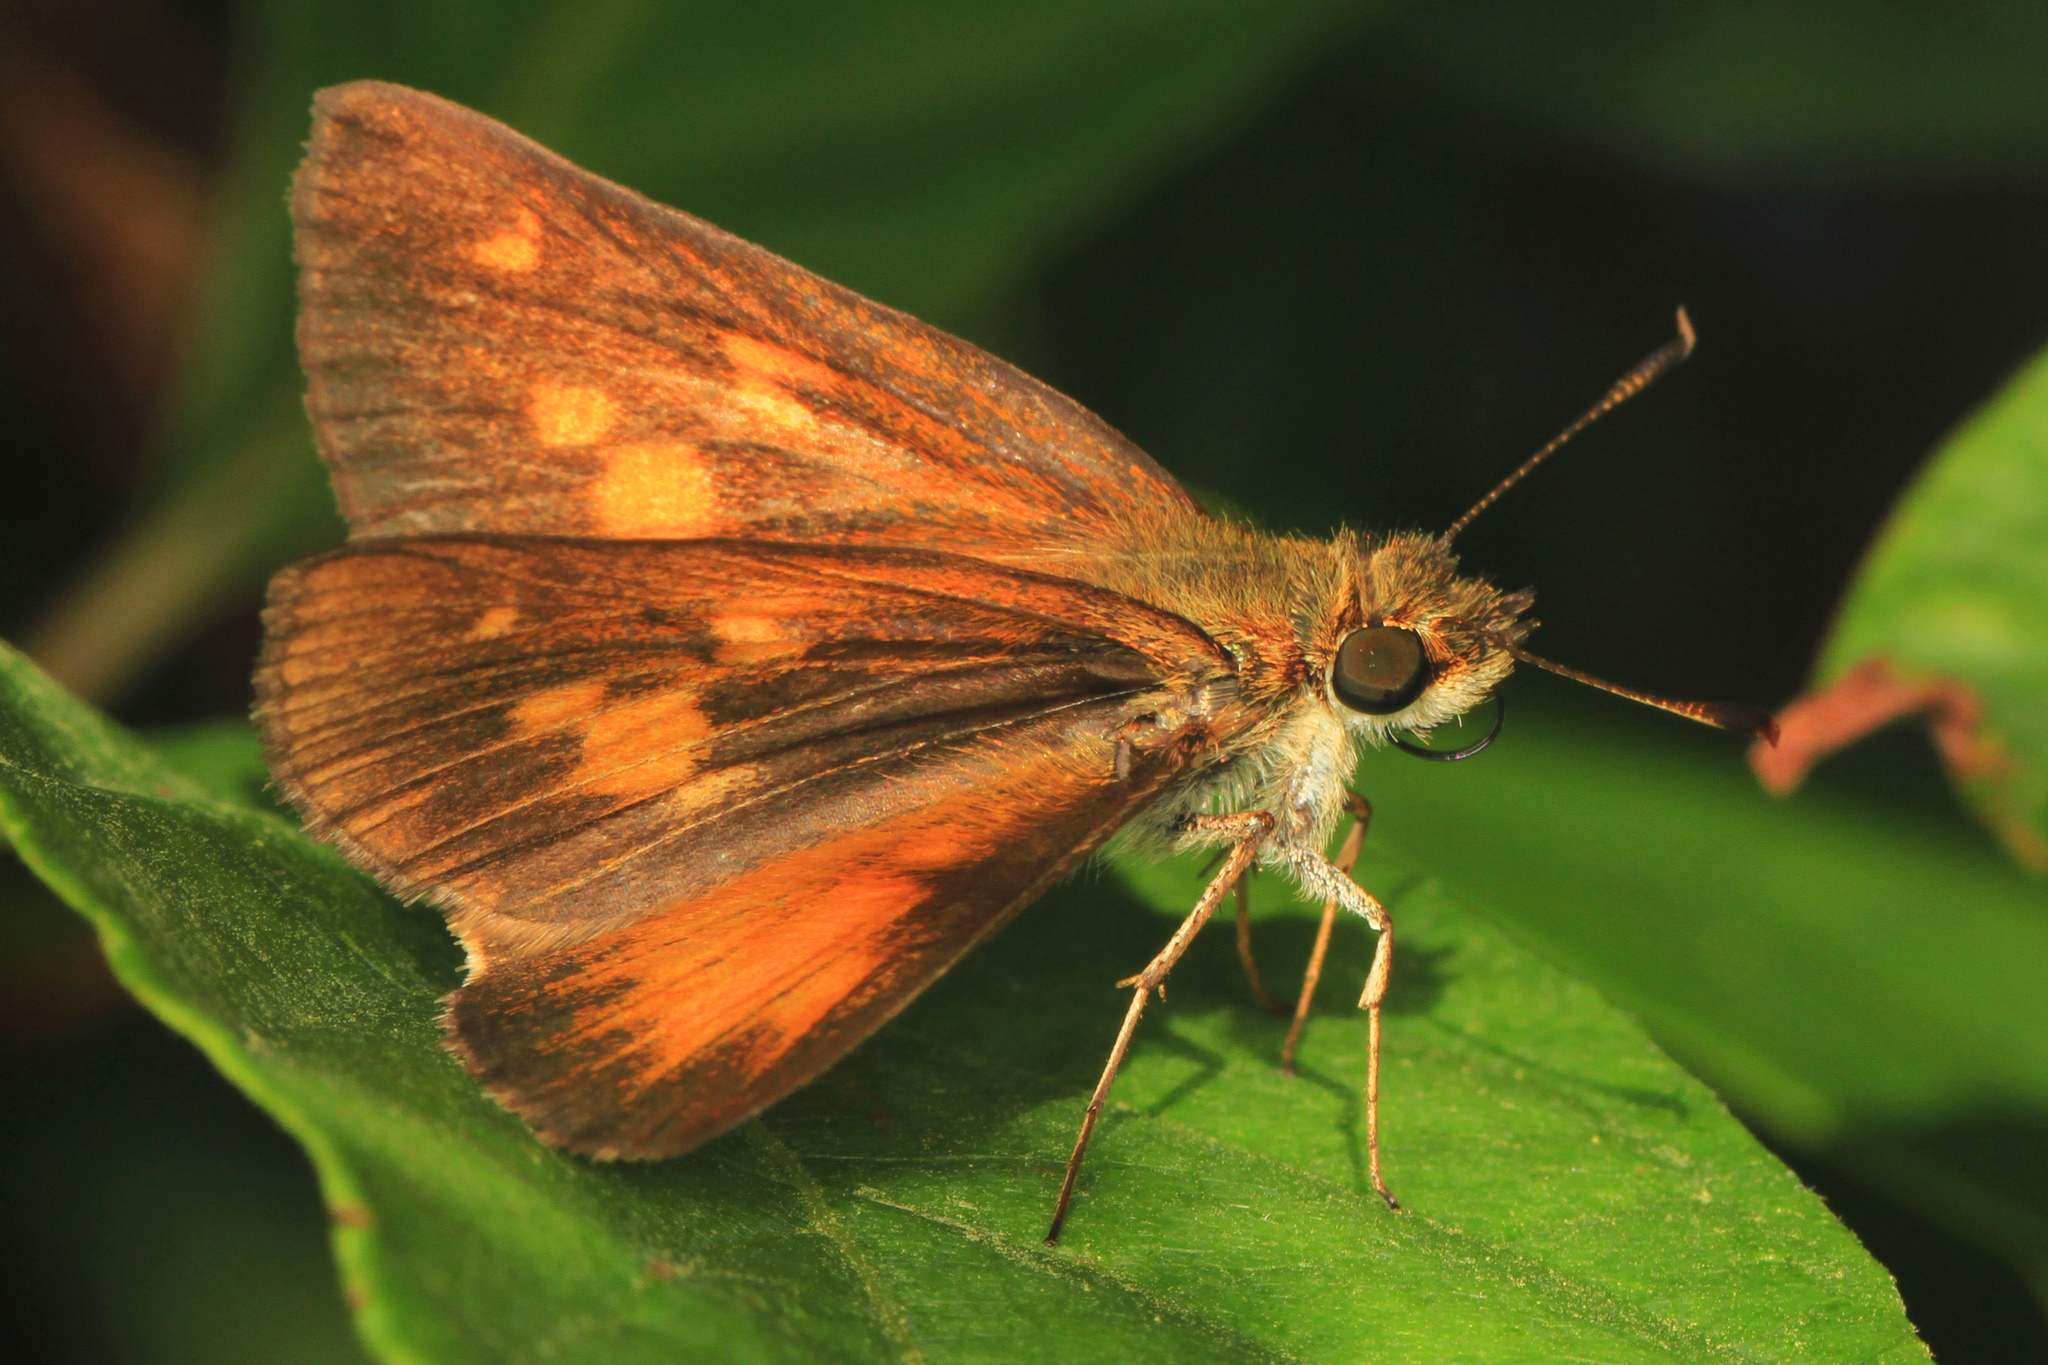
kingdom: Animalia
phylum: Arthropoda
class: Insecta
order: Lepidoptera
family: Hesperiidae
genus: Poanes
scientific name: Poanes viator
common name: Broad-winged skipper
